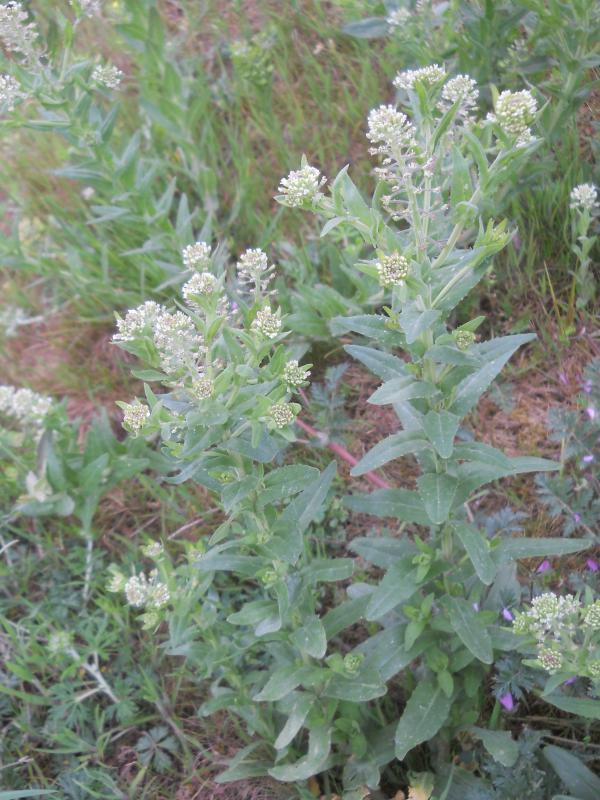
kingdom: Plantae
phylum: Tracheophyta
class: Magnoliopsida
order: Brassicales
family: Brassicaceae
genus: Lepidium
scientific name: Lepidium campestre
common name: Field pepperwort
